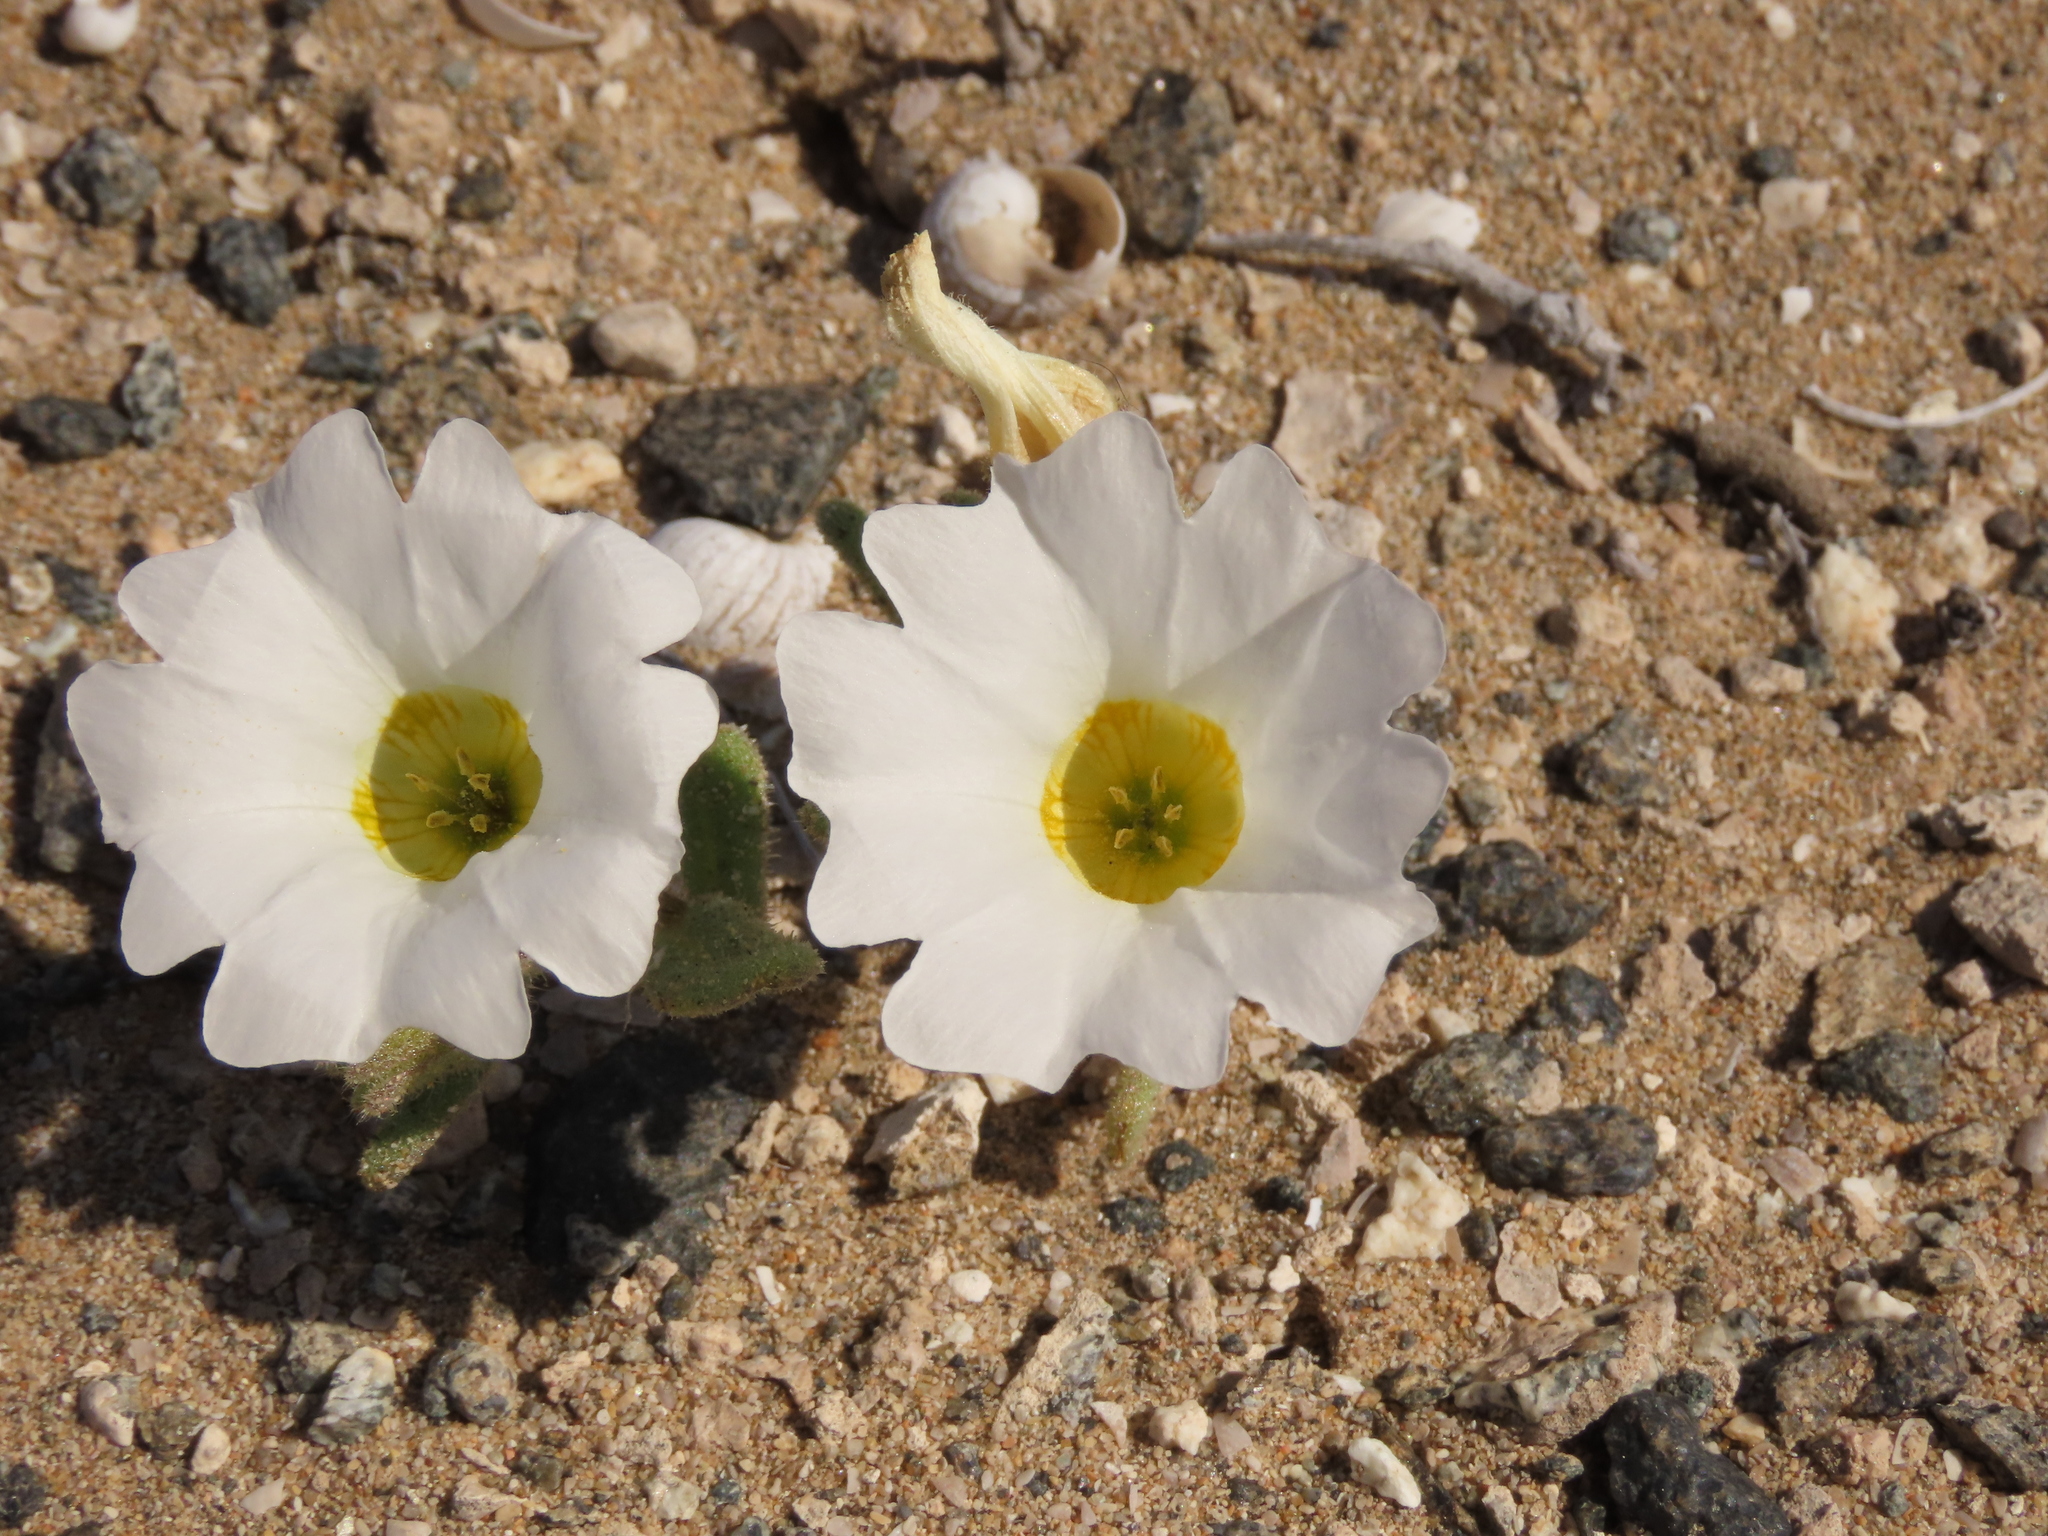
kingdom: Plantae
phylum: Tracheophyta
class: Magnoliopsida
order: Solanales
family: Solanaceae
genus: Nolana
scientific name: Nolana baccata
